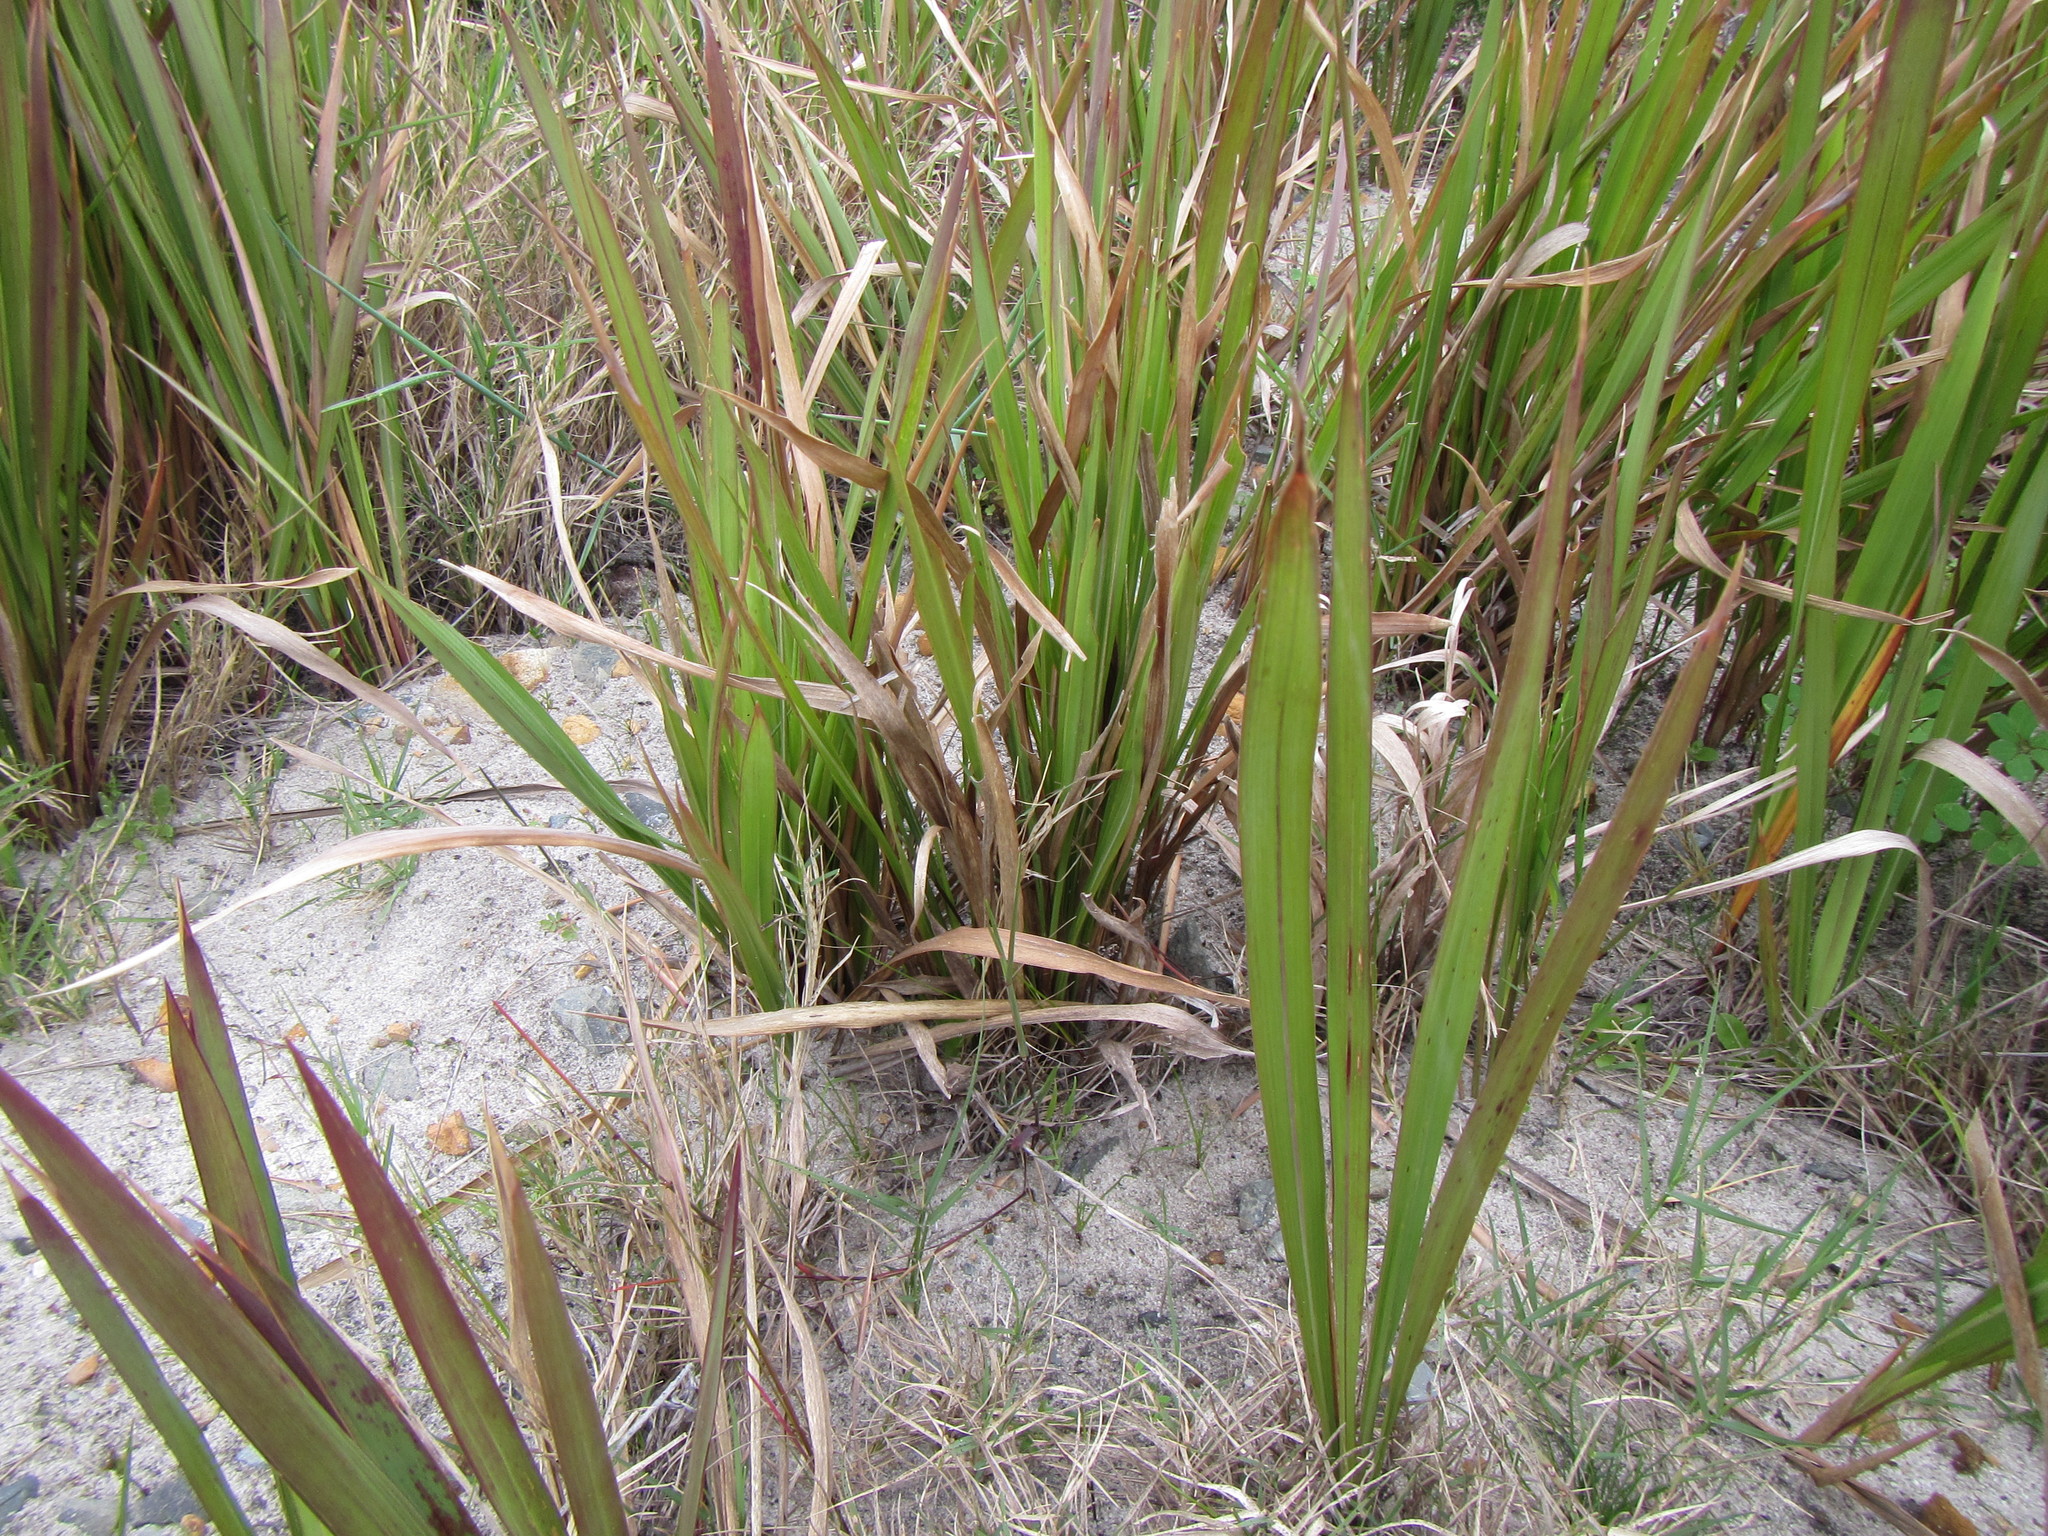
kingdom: Plantae
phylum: Tracheophyta
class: Liliopsida
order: Poales
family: Poaceae
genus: Imperata
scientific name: Imperata cylindrica
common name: Cogongrass
